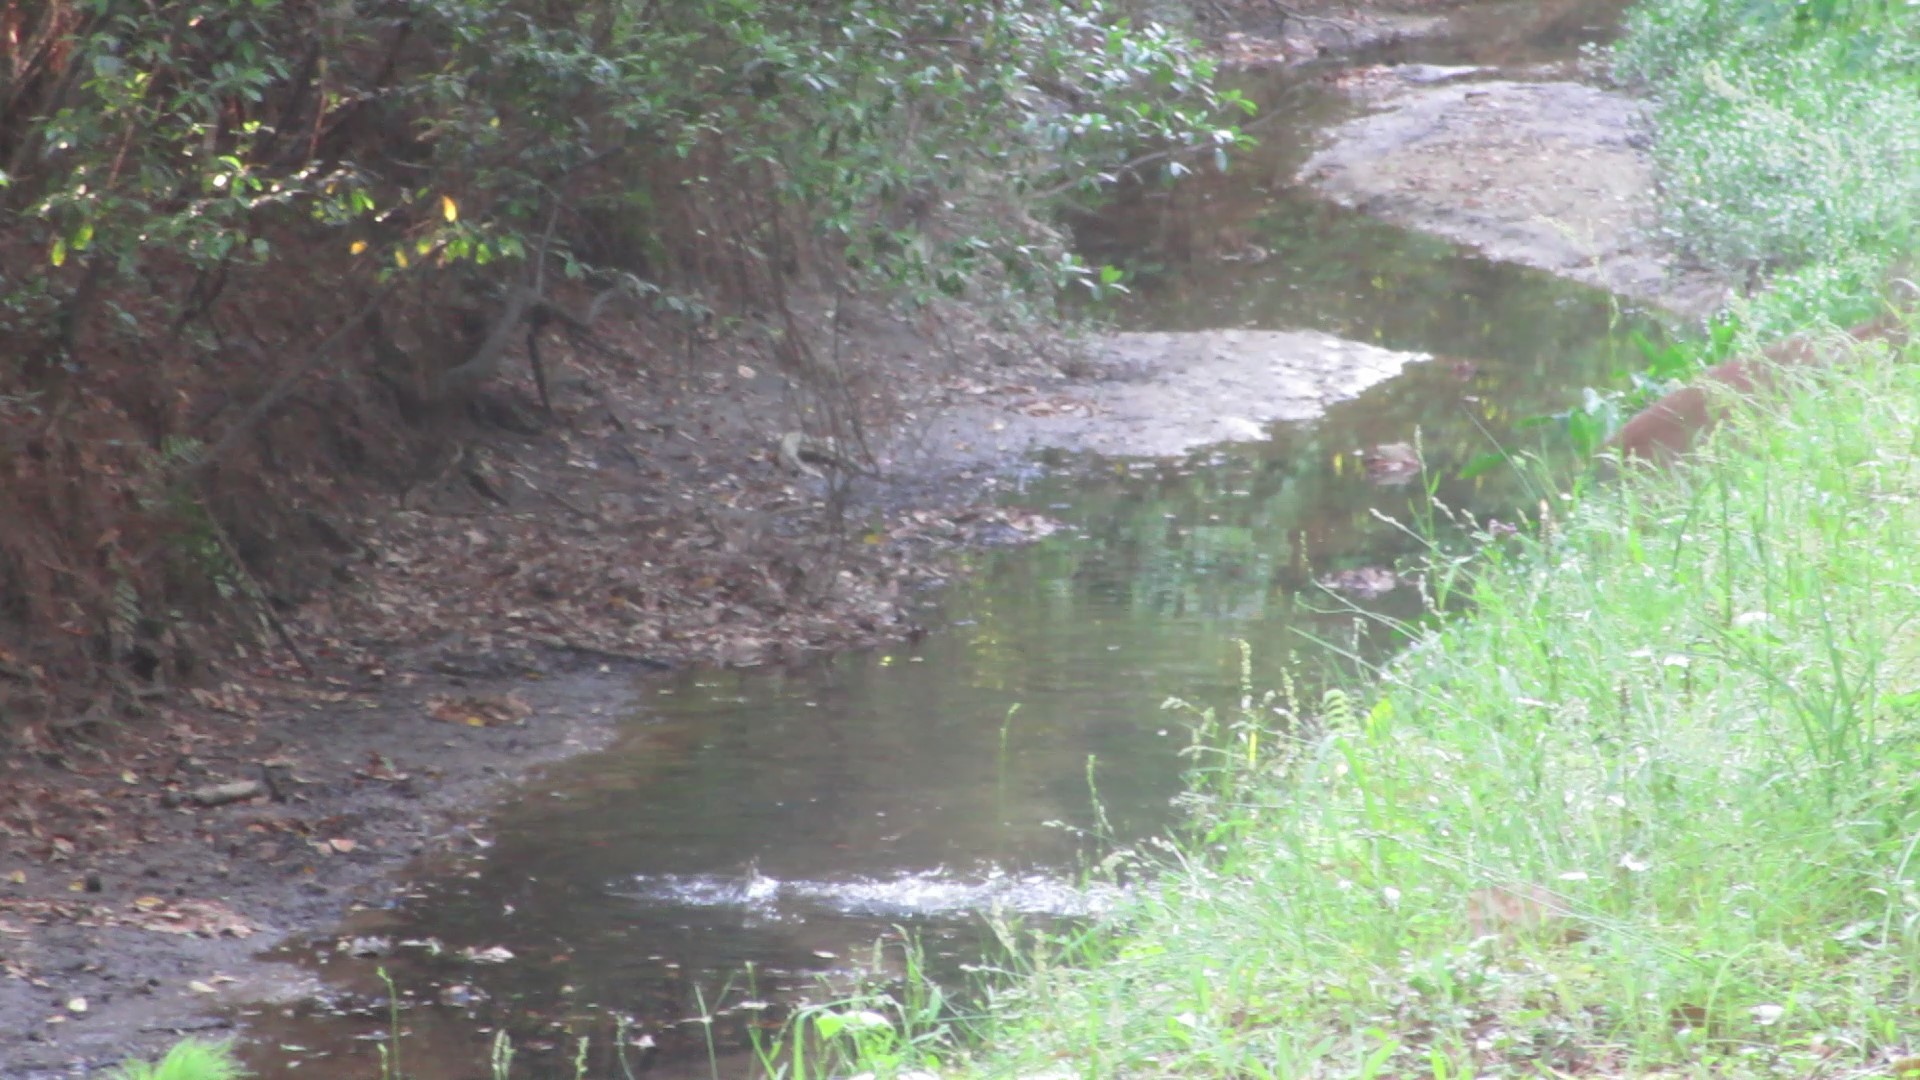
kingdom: Animalia
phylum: Chordata
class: Mammalia
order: Artiodactyla
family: Cervidae
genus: Odocoileus
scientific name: Odocoileus virginianus
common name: White-tailed deer
